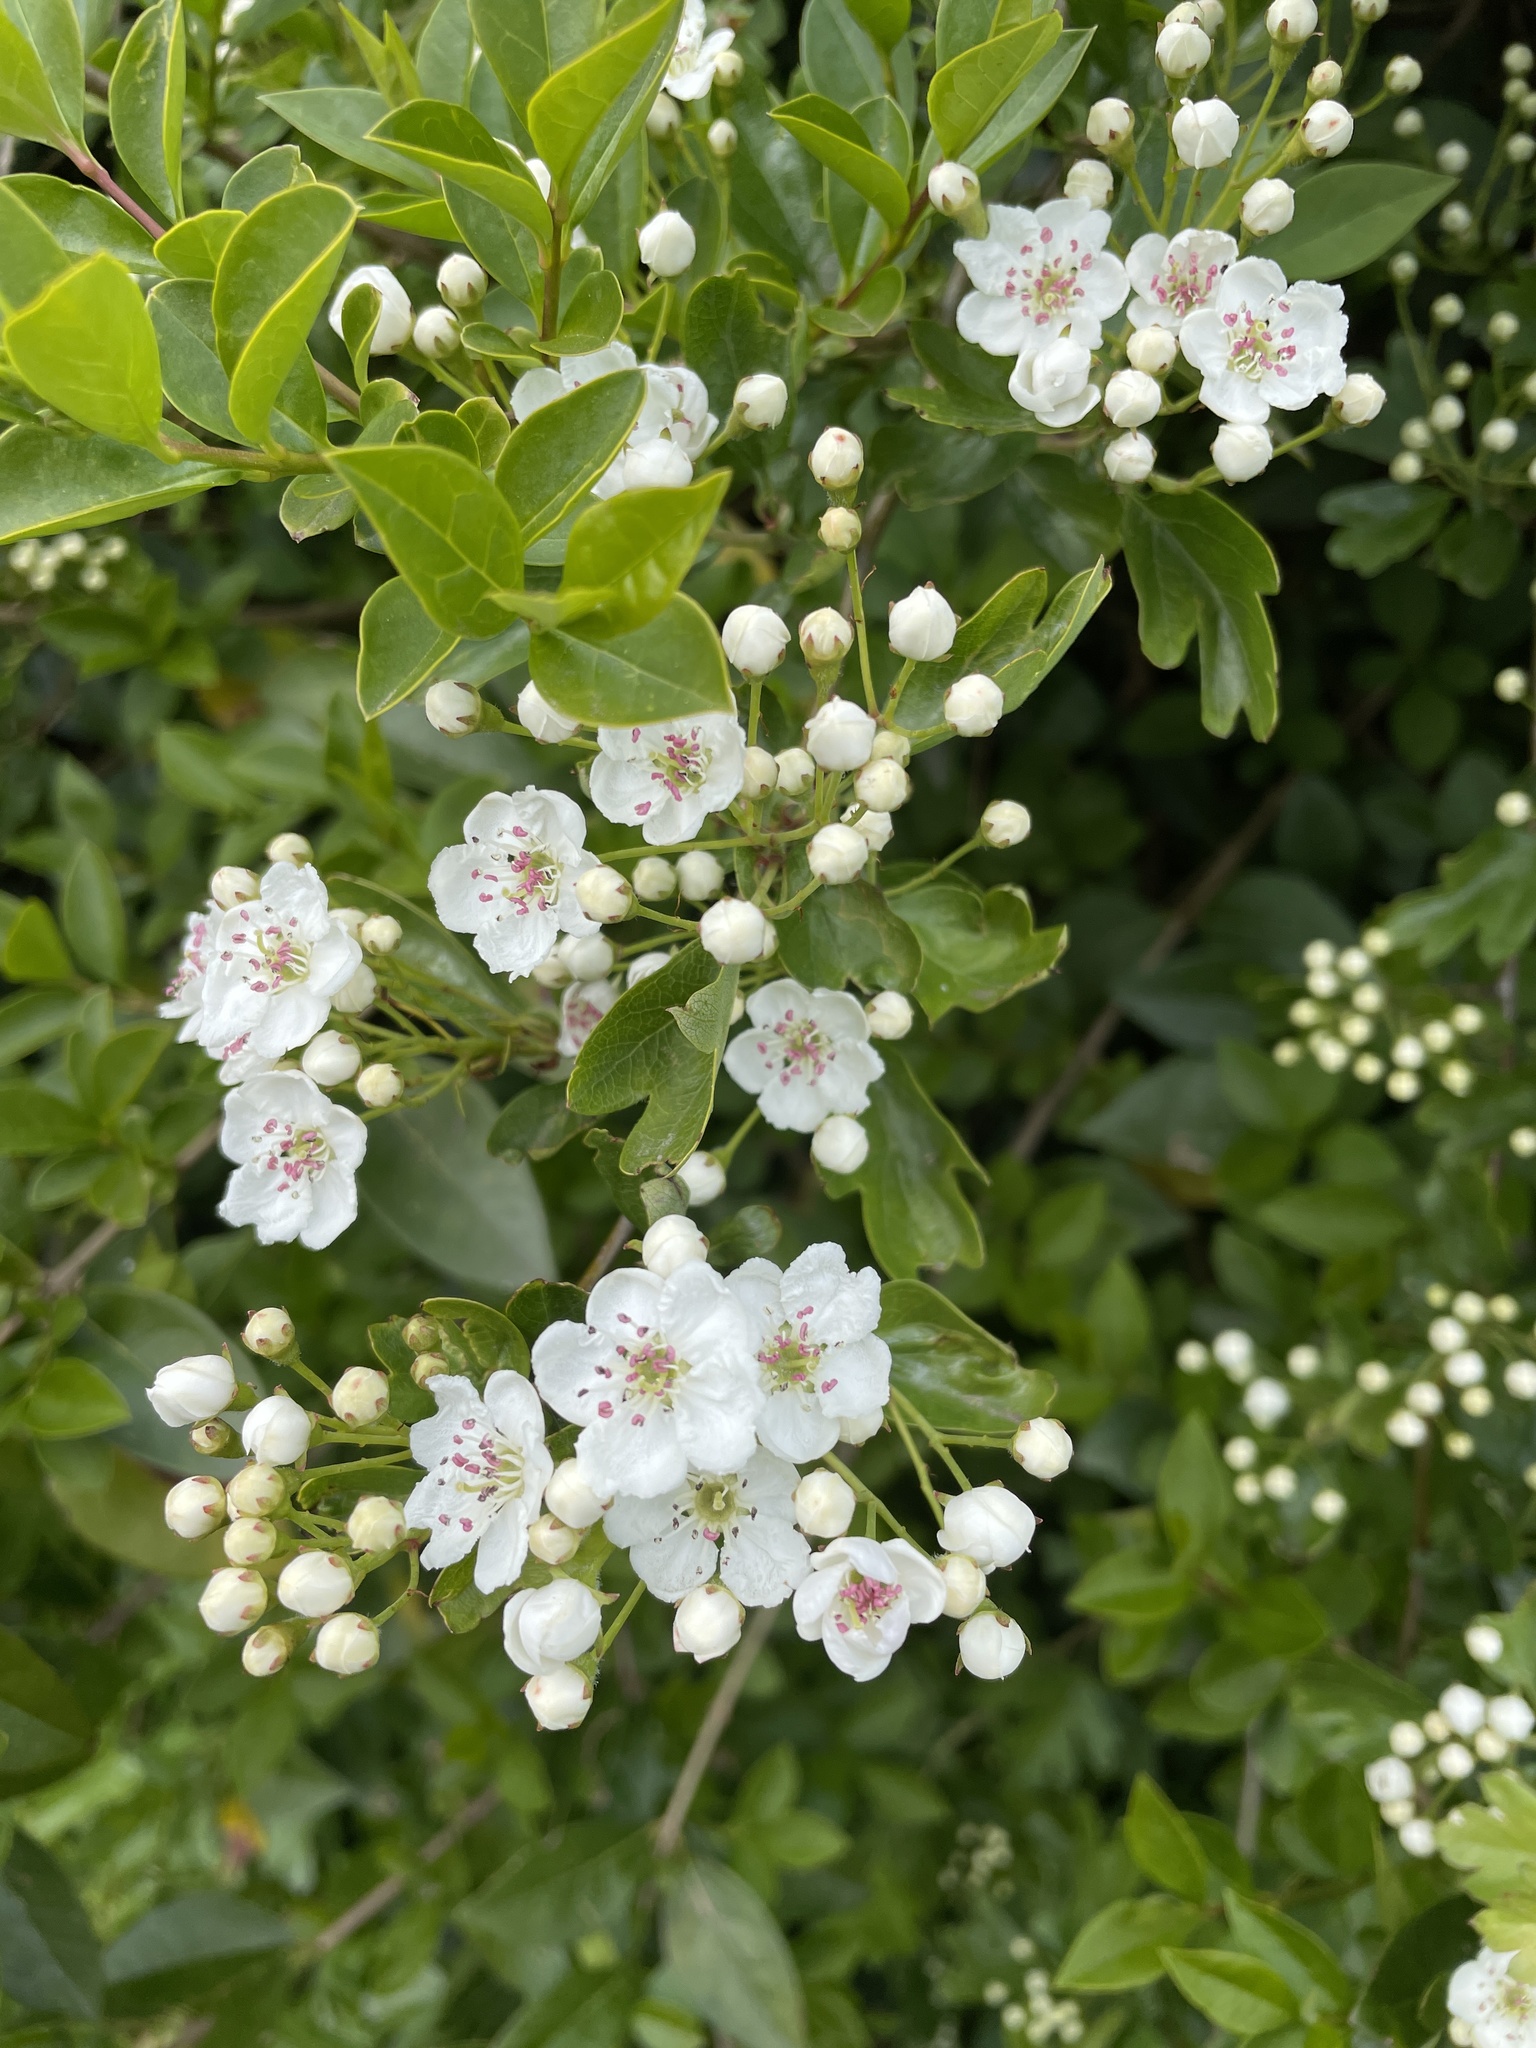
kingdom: Plantae
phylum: Tracheophyta
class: Magnoliopsida
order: Rosales
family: Rosaceae
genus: Crataegus
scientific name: Crataegus monogyna
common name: Hawthorn
